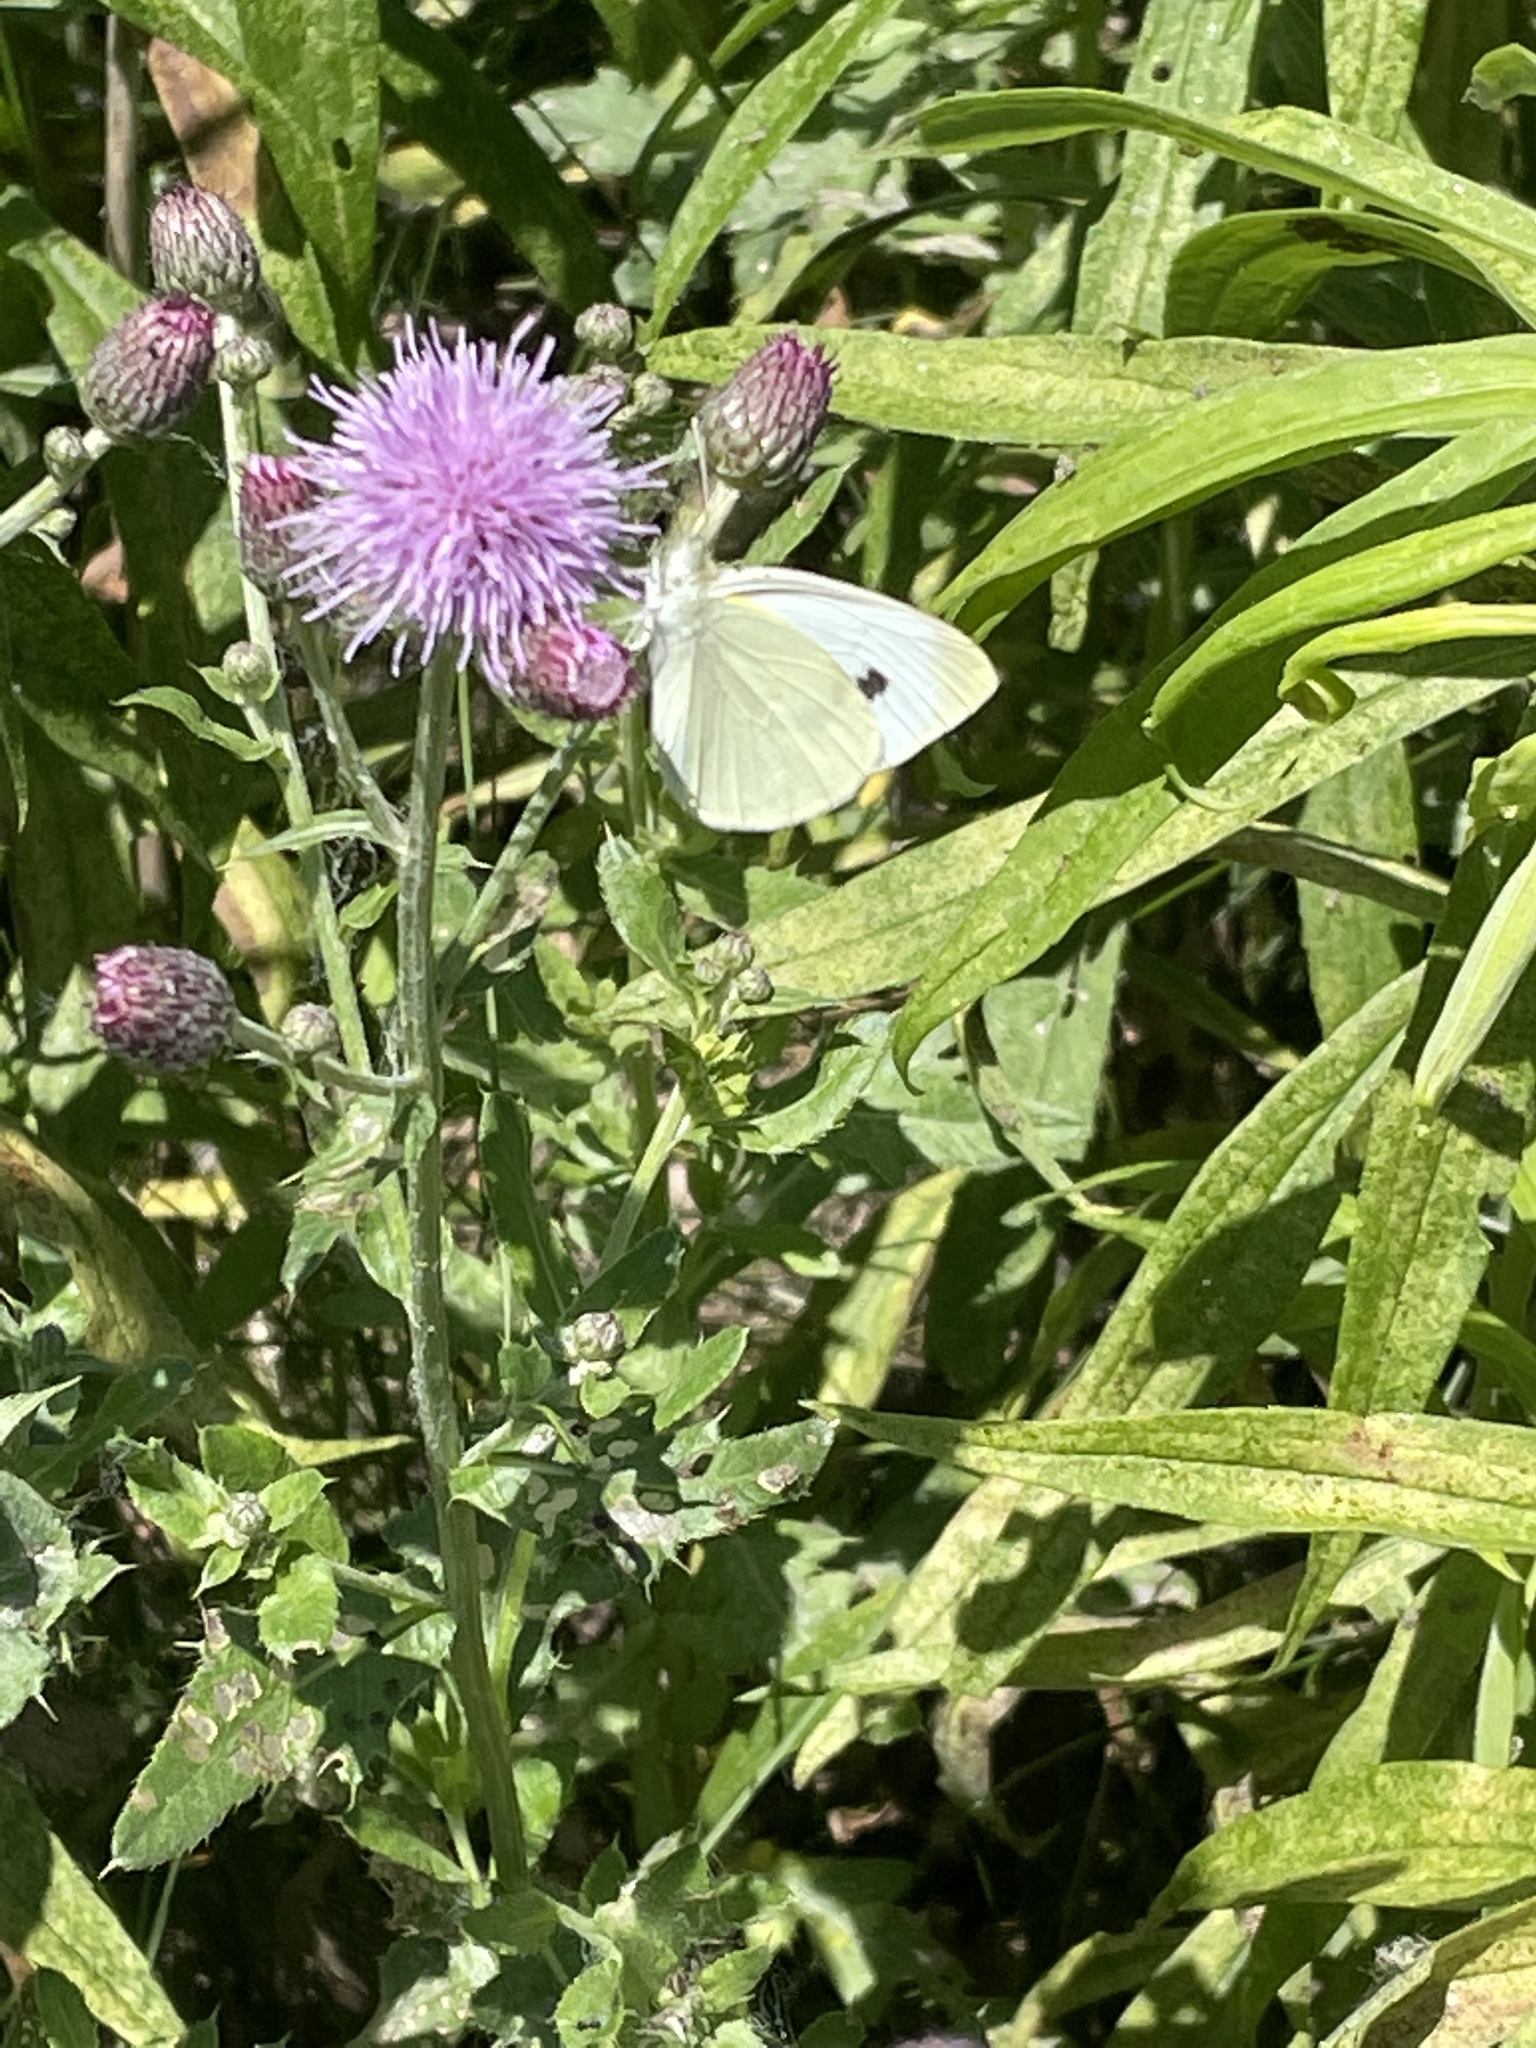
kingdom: Animalia
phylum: Arthropoda
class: Insecta
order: Lepidoptera
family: Pieridae
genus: Pieris
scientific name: Pieris rapae
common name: Small white
